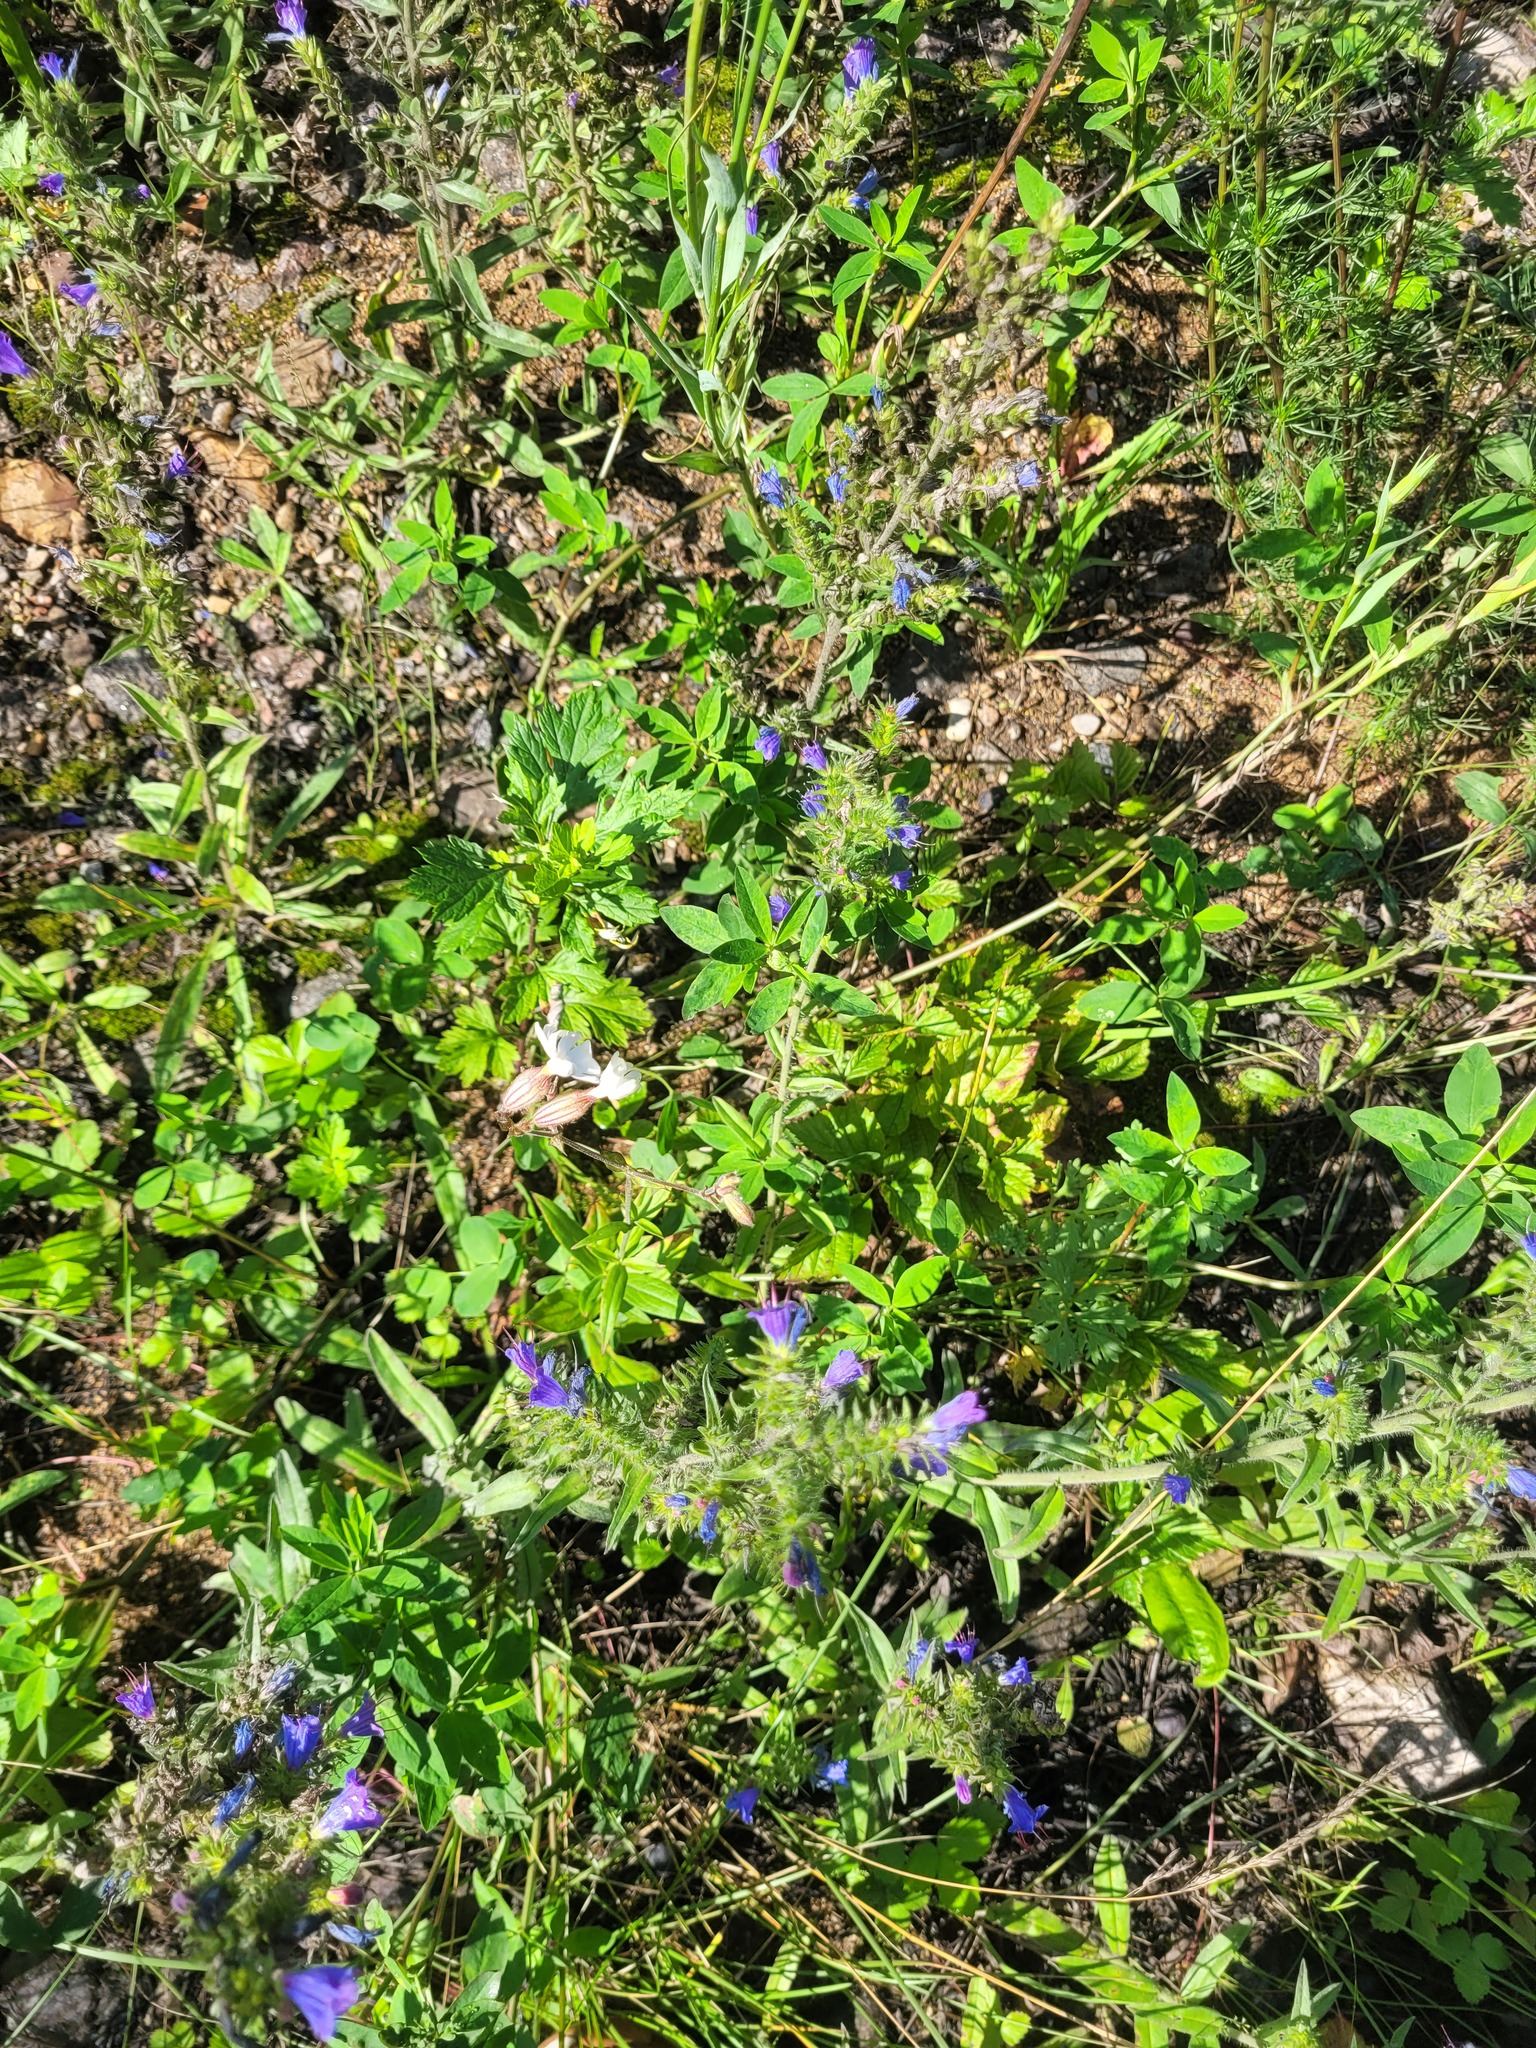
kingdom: Plantae
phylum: Tracheophyta
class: Magnoliopsida
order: Caryophyllales
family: Caryophyllaceae
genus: Silene
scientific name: Silene latifolia
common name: White campion
